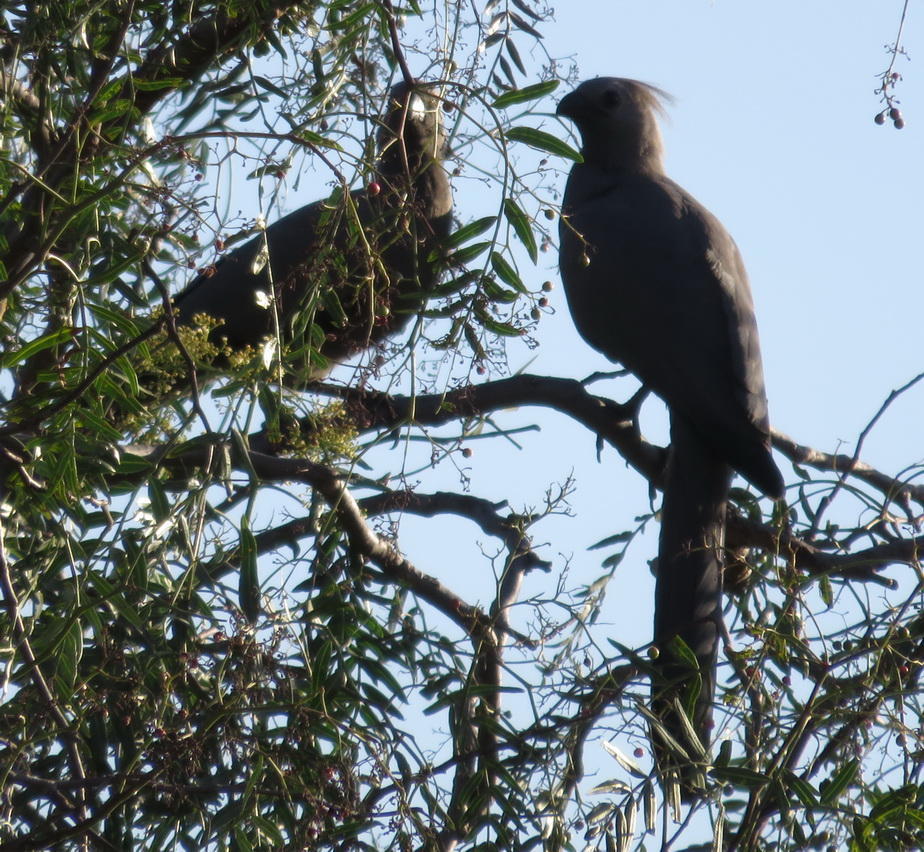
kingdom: Animalia
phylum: Chordata
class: Aves
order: Musophagiformes
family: Musophagidae
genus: Corythaixoides
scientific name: Corythaixoides concolor
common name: Grey go-away-bird
